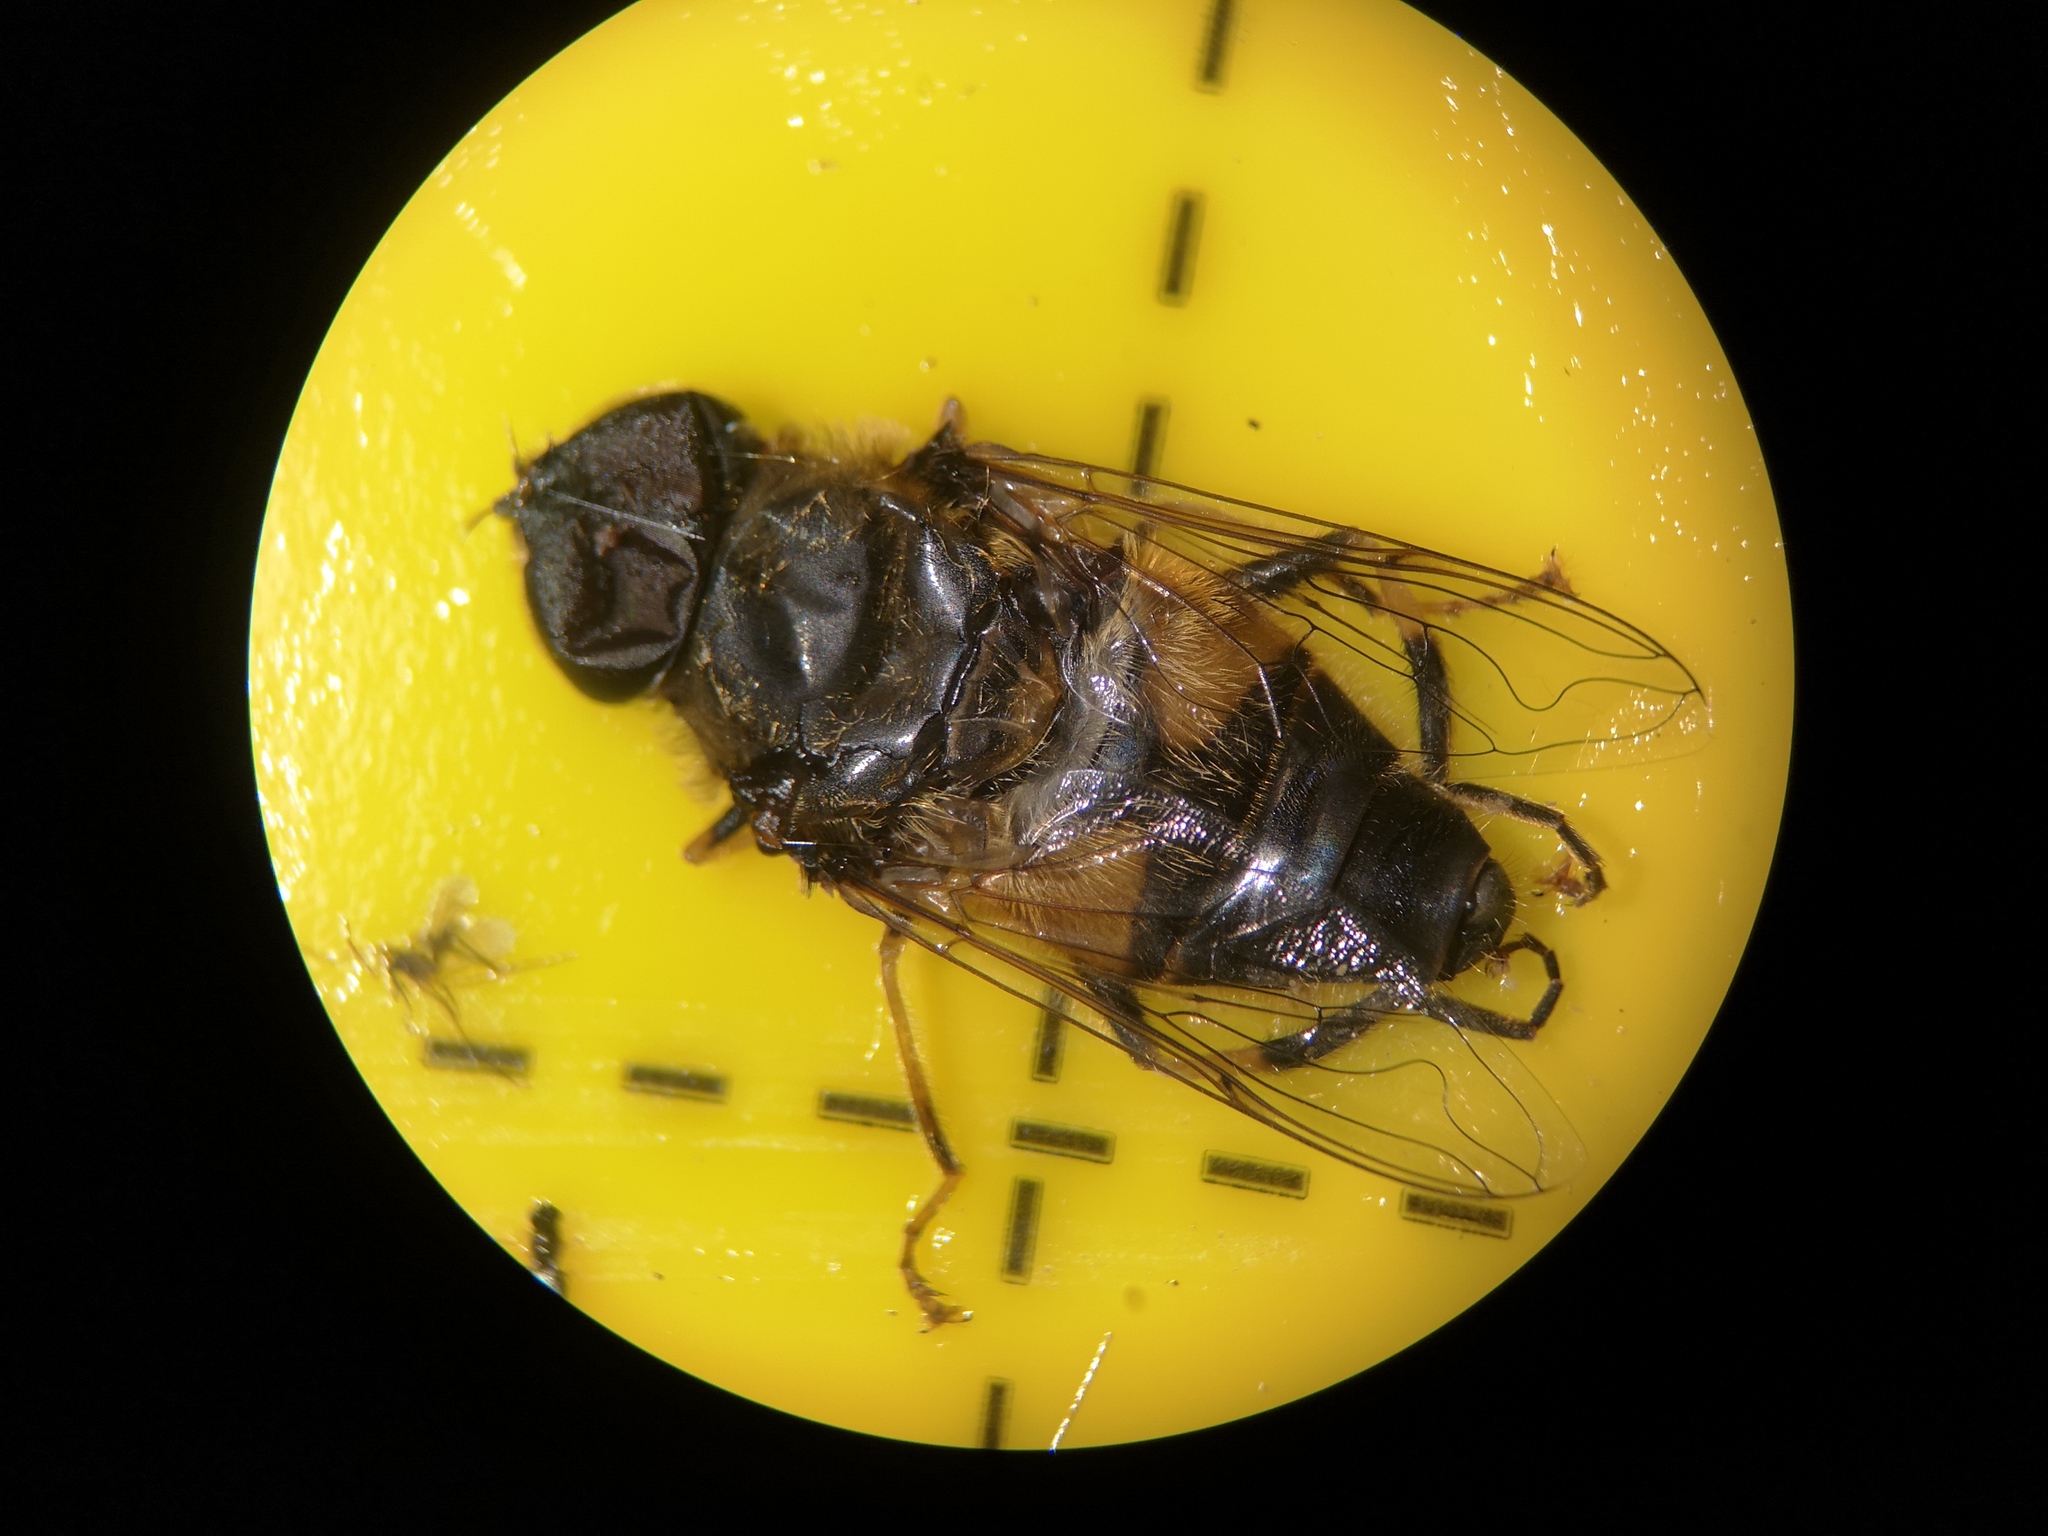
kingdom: Animalia
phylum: Arthropoda
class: Insecta
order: Diptera
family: Syrphidae
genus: Eristalis
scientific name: Eristalis pertinax
